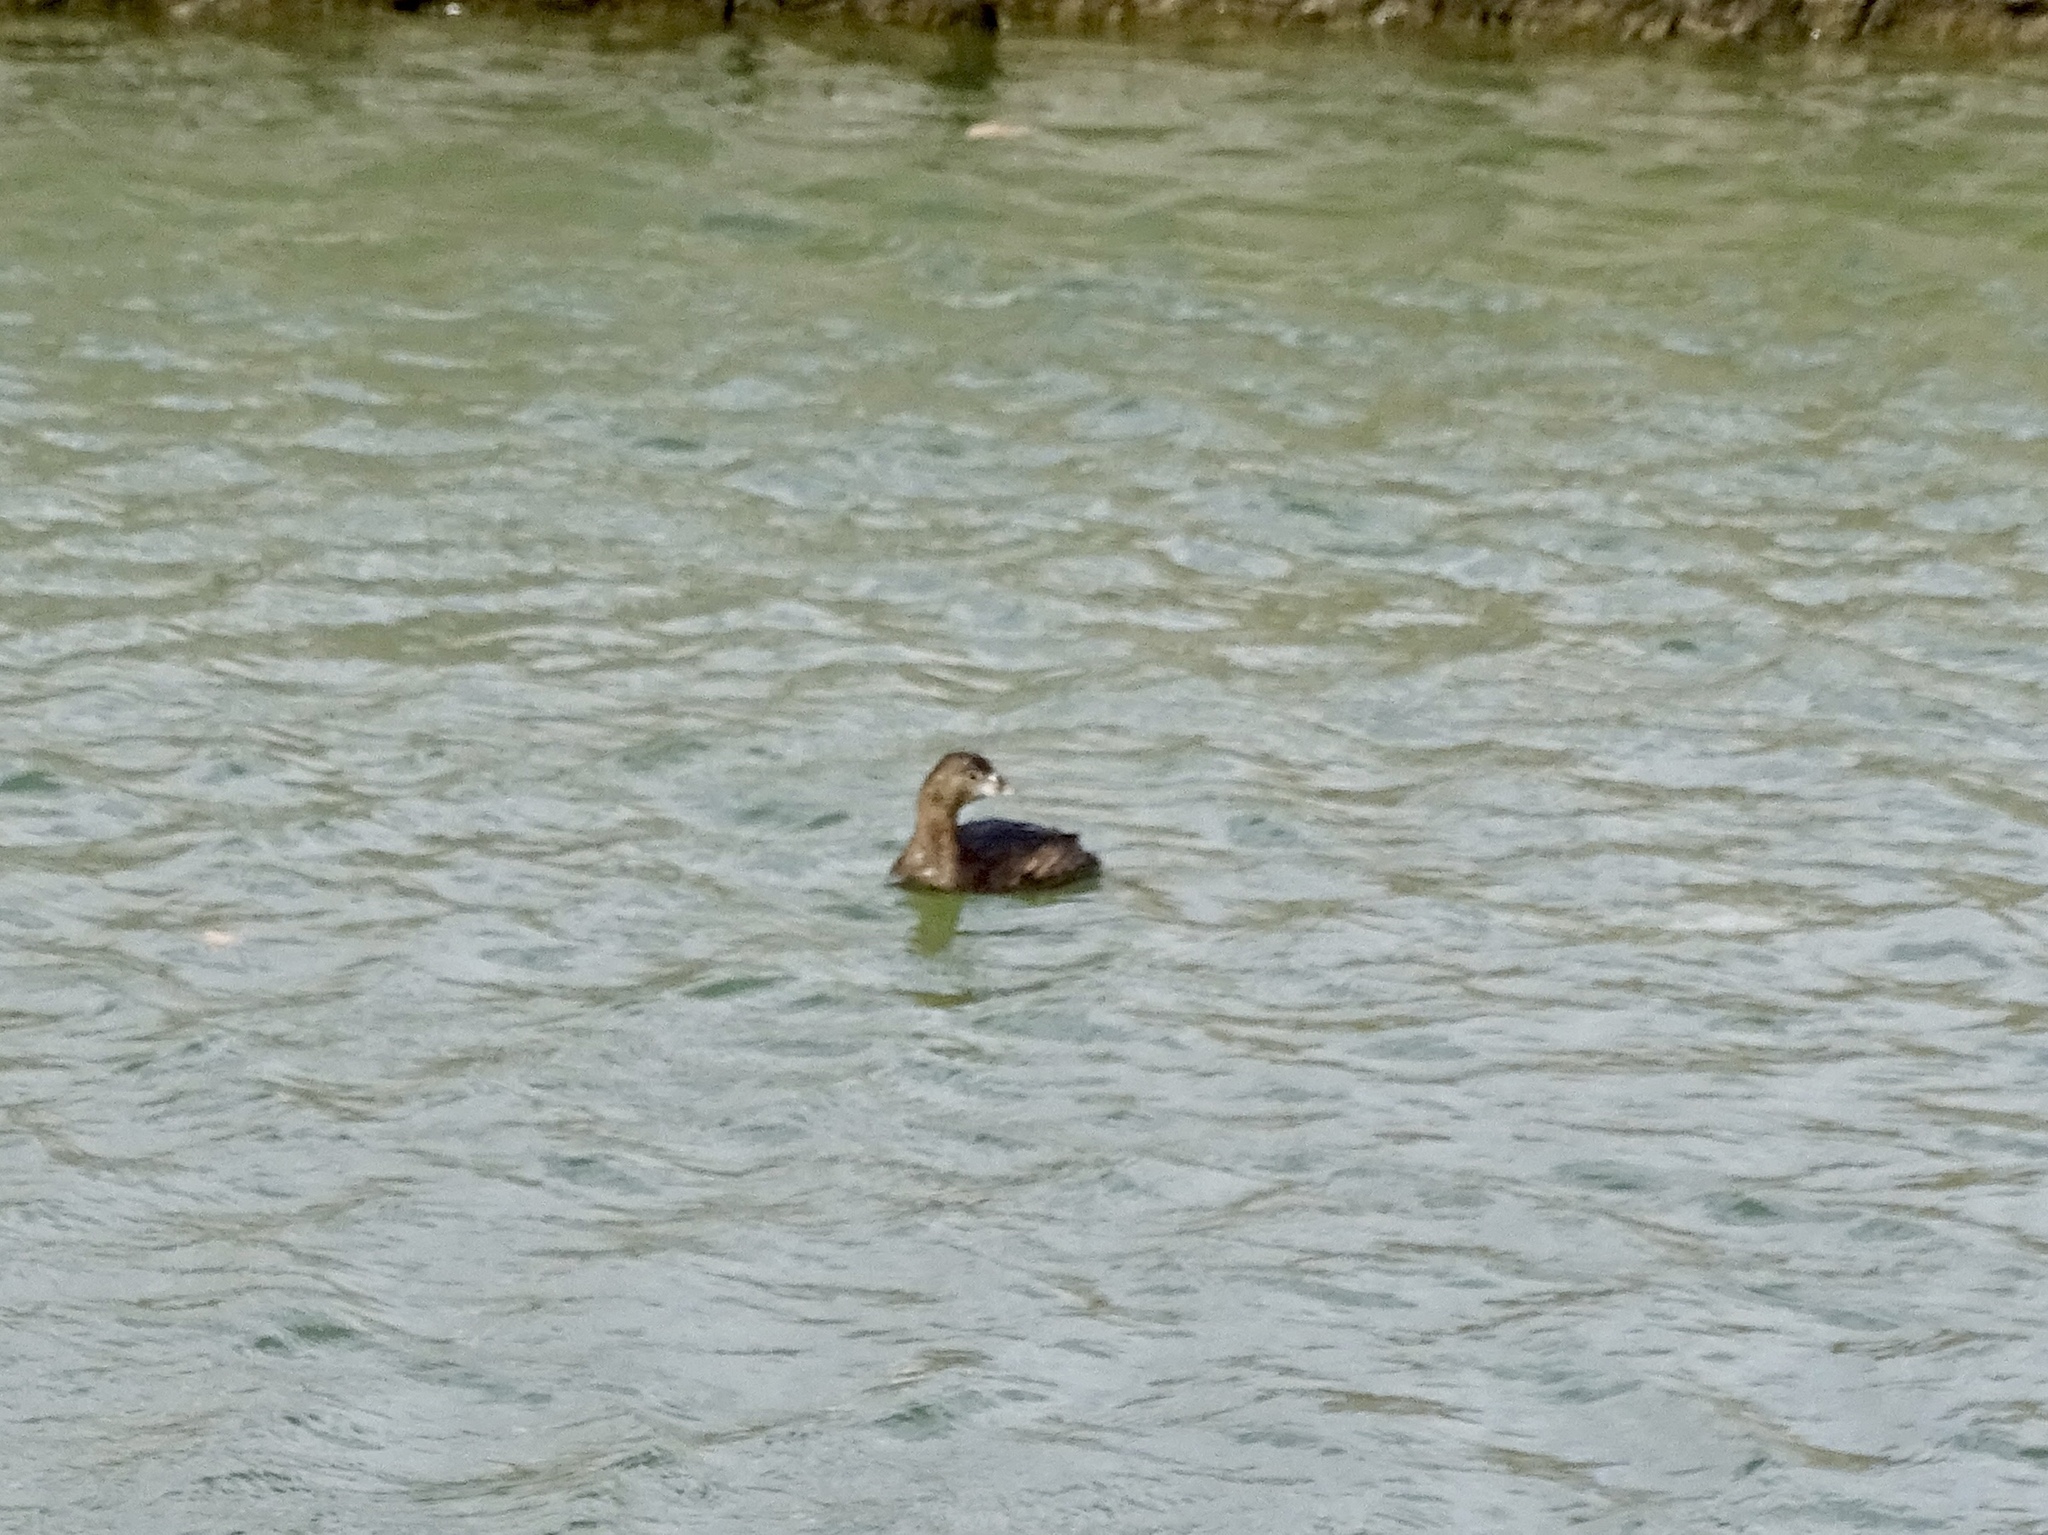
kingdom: Animalia
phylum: Chordata
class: Aves
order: Podicipediformes
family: Podicipedidae
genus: Podilymbus
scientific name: Podilymbus podiceps
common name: Pied-billed grebe
